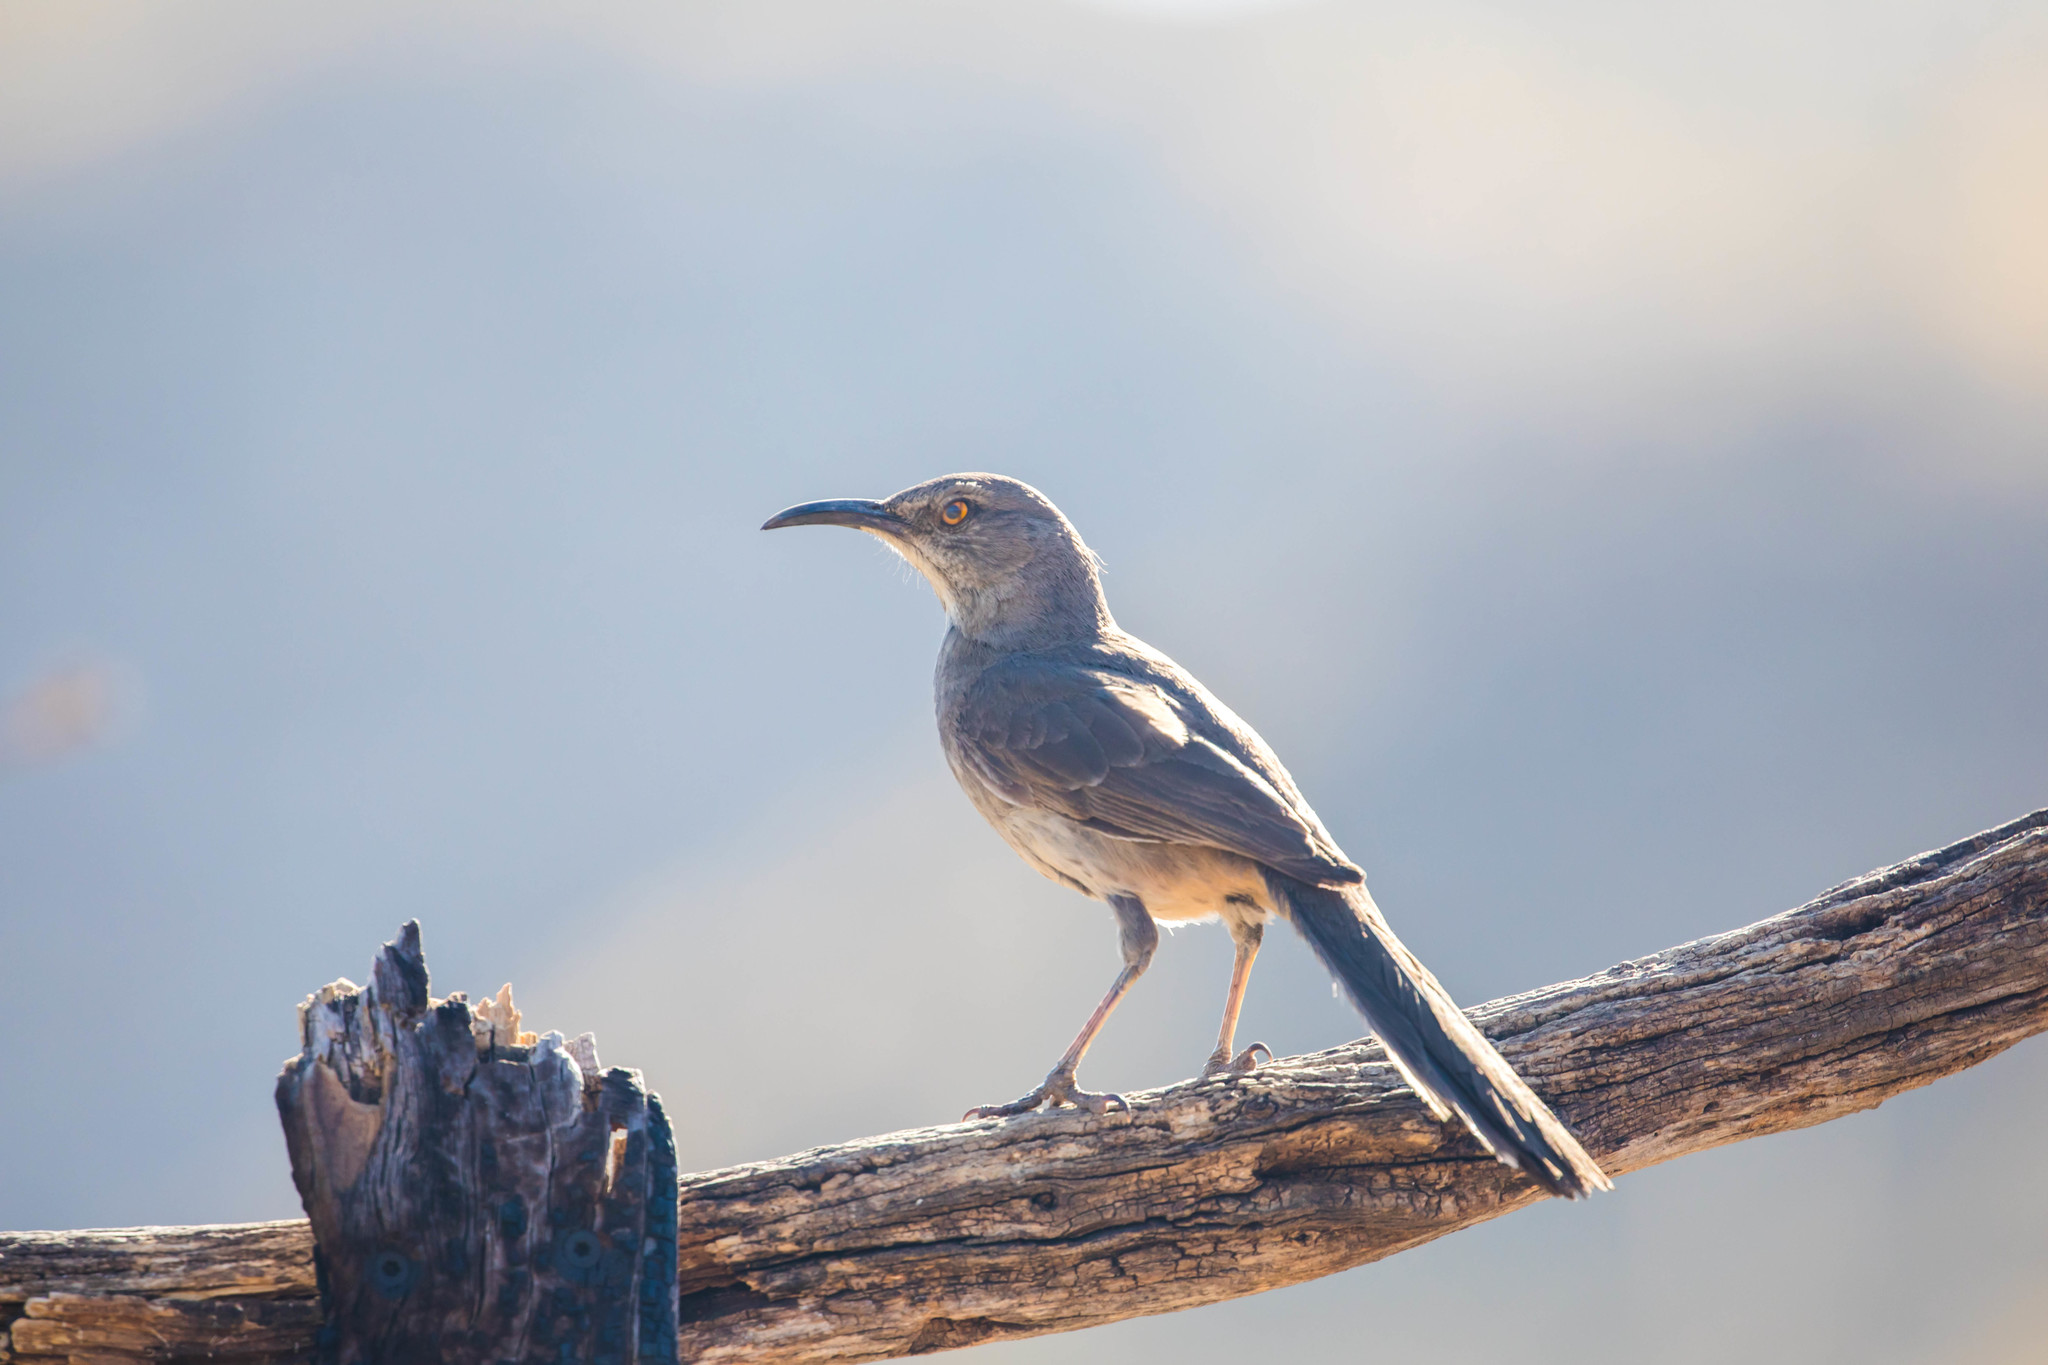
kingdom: Animalia
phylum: Chordata
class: Aves
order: Passeriformes
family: Mimidae
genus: Toxostoma
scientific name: Toxostoma curvirostre
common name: Curve-billed thrasher
